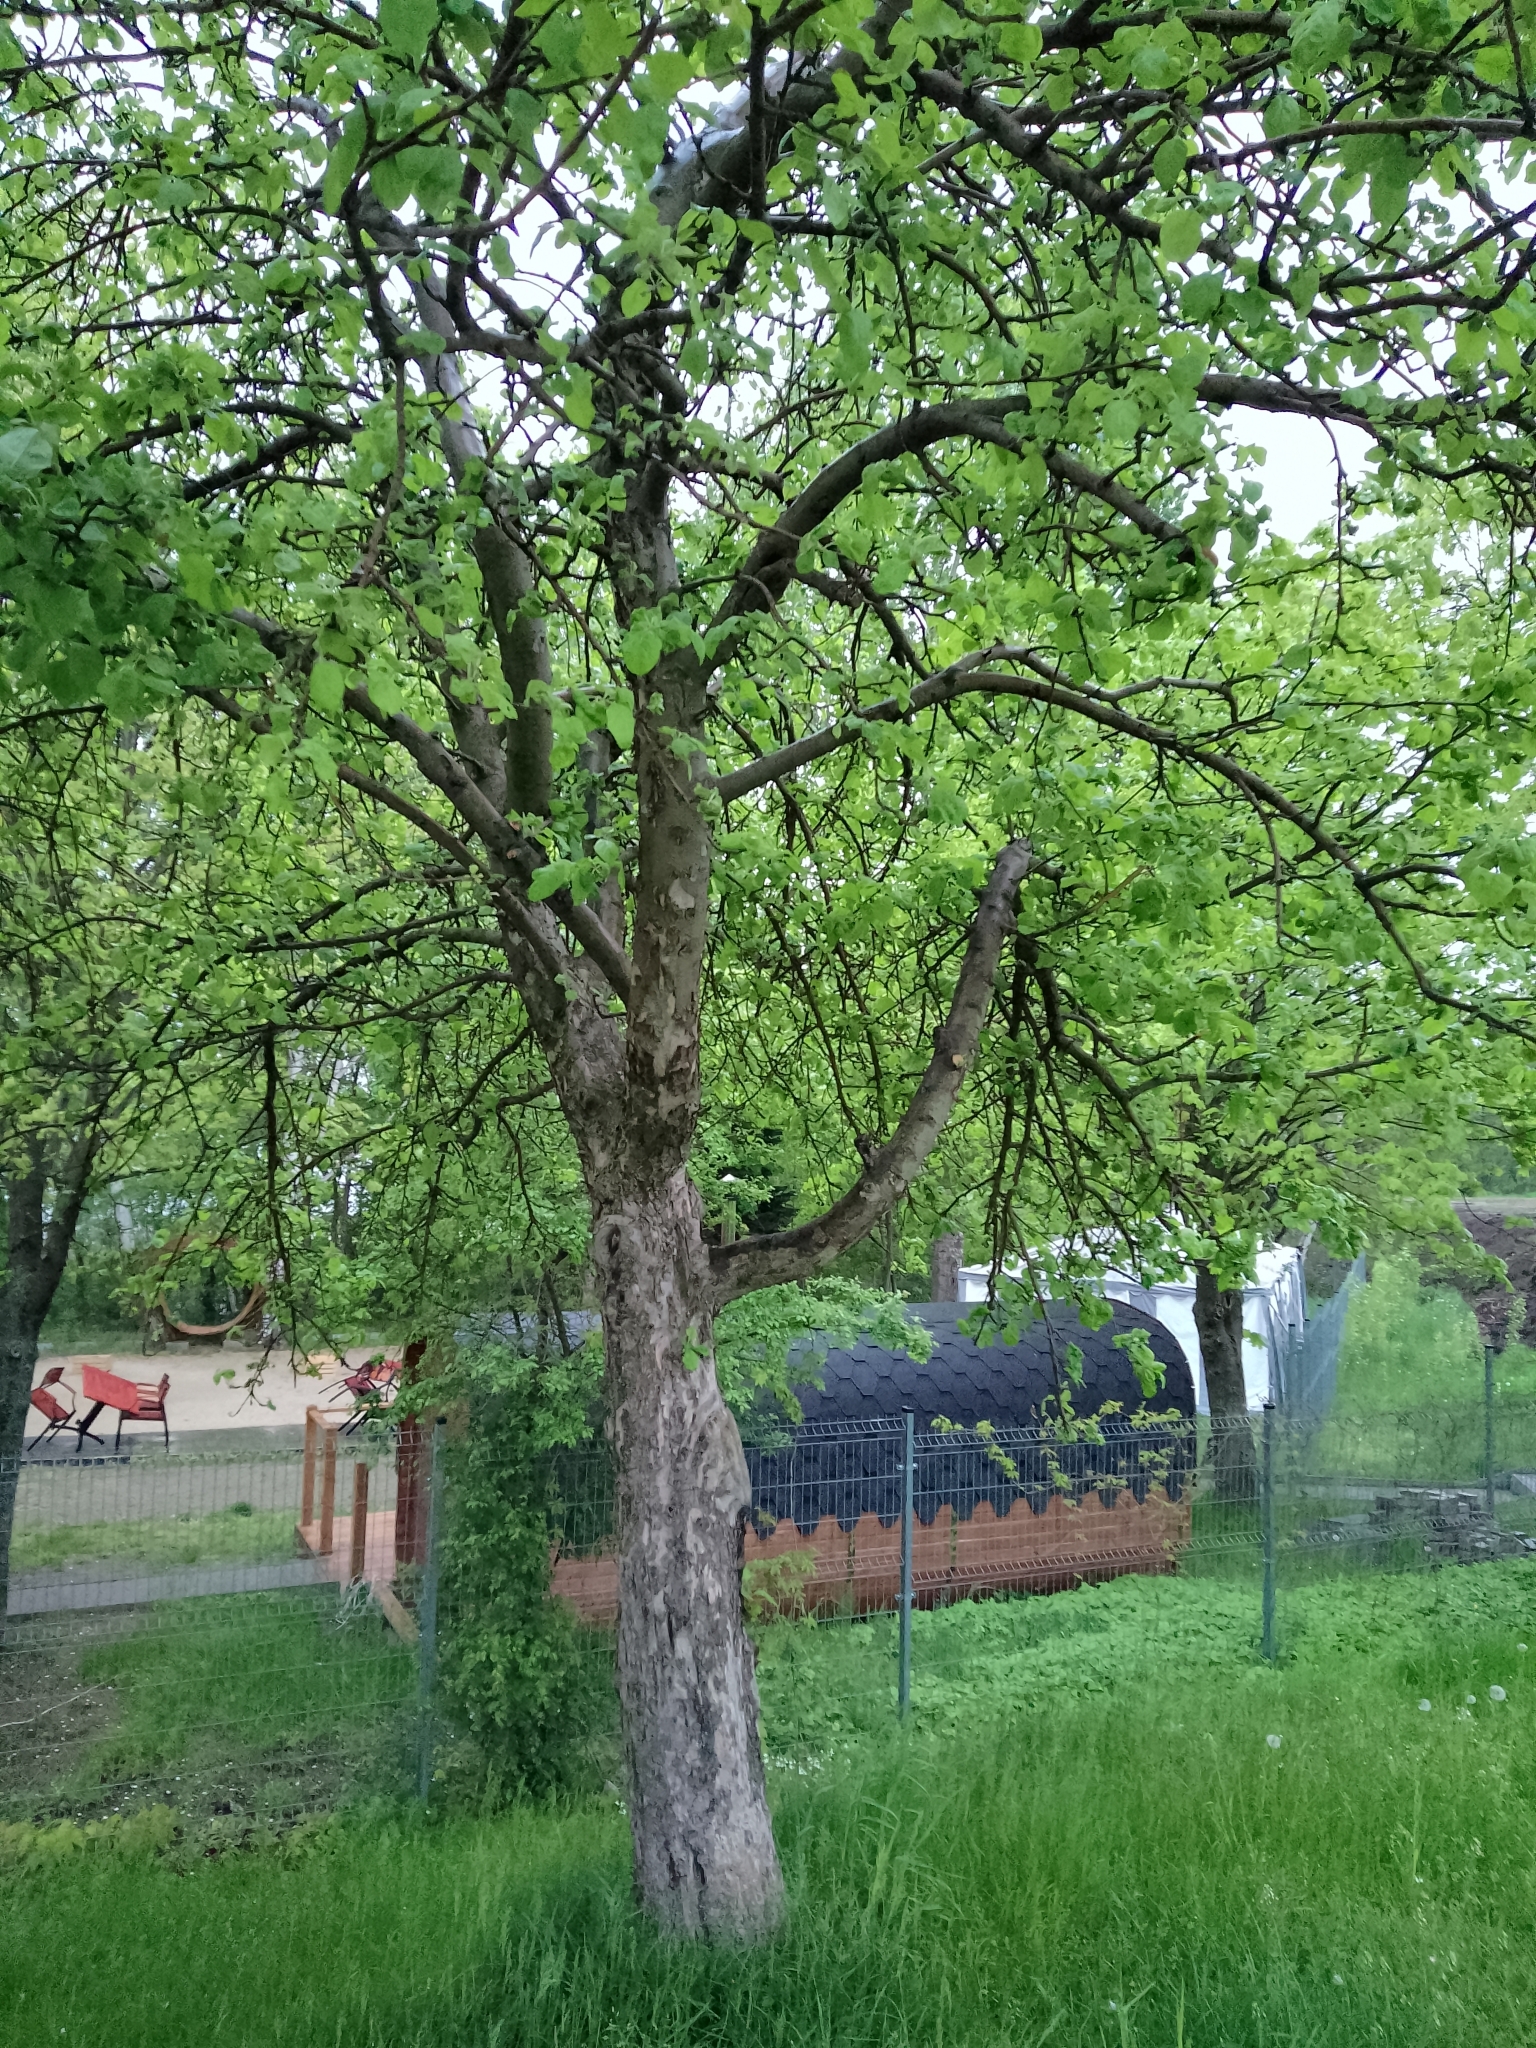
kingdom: Plantae
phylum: Tracheophyta
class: Magnoliopsida
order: Rosales
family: Rosaceae
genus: Malus
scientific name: Malus domestica
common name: Apple
